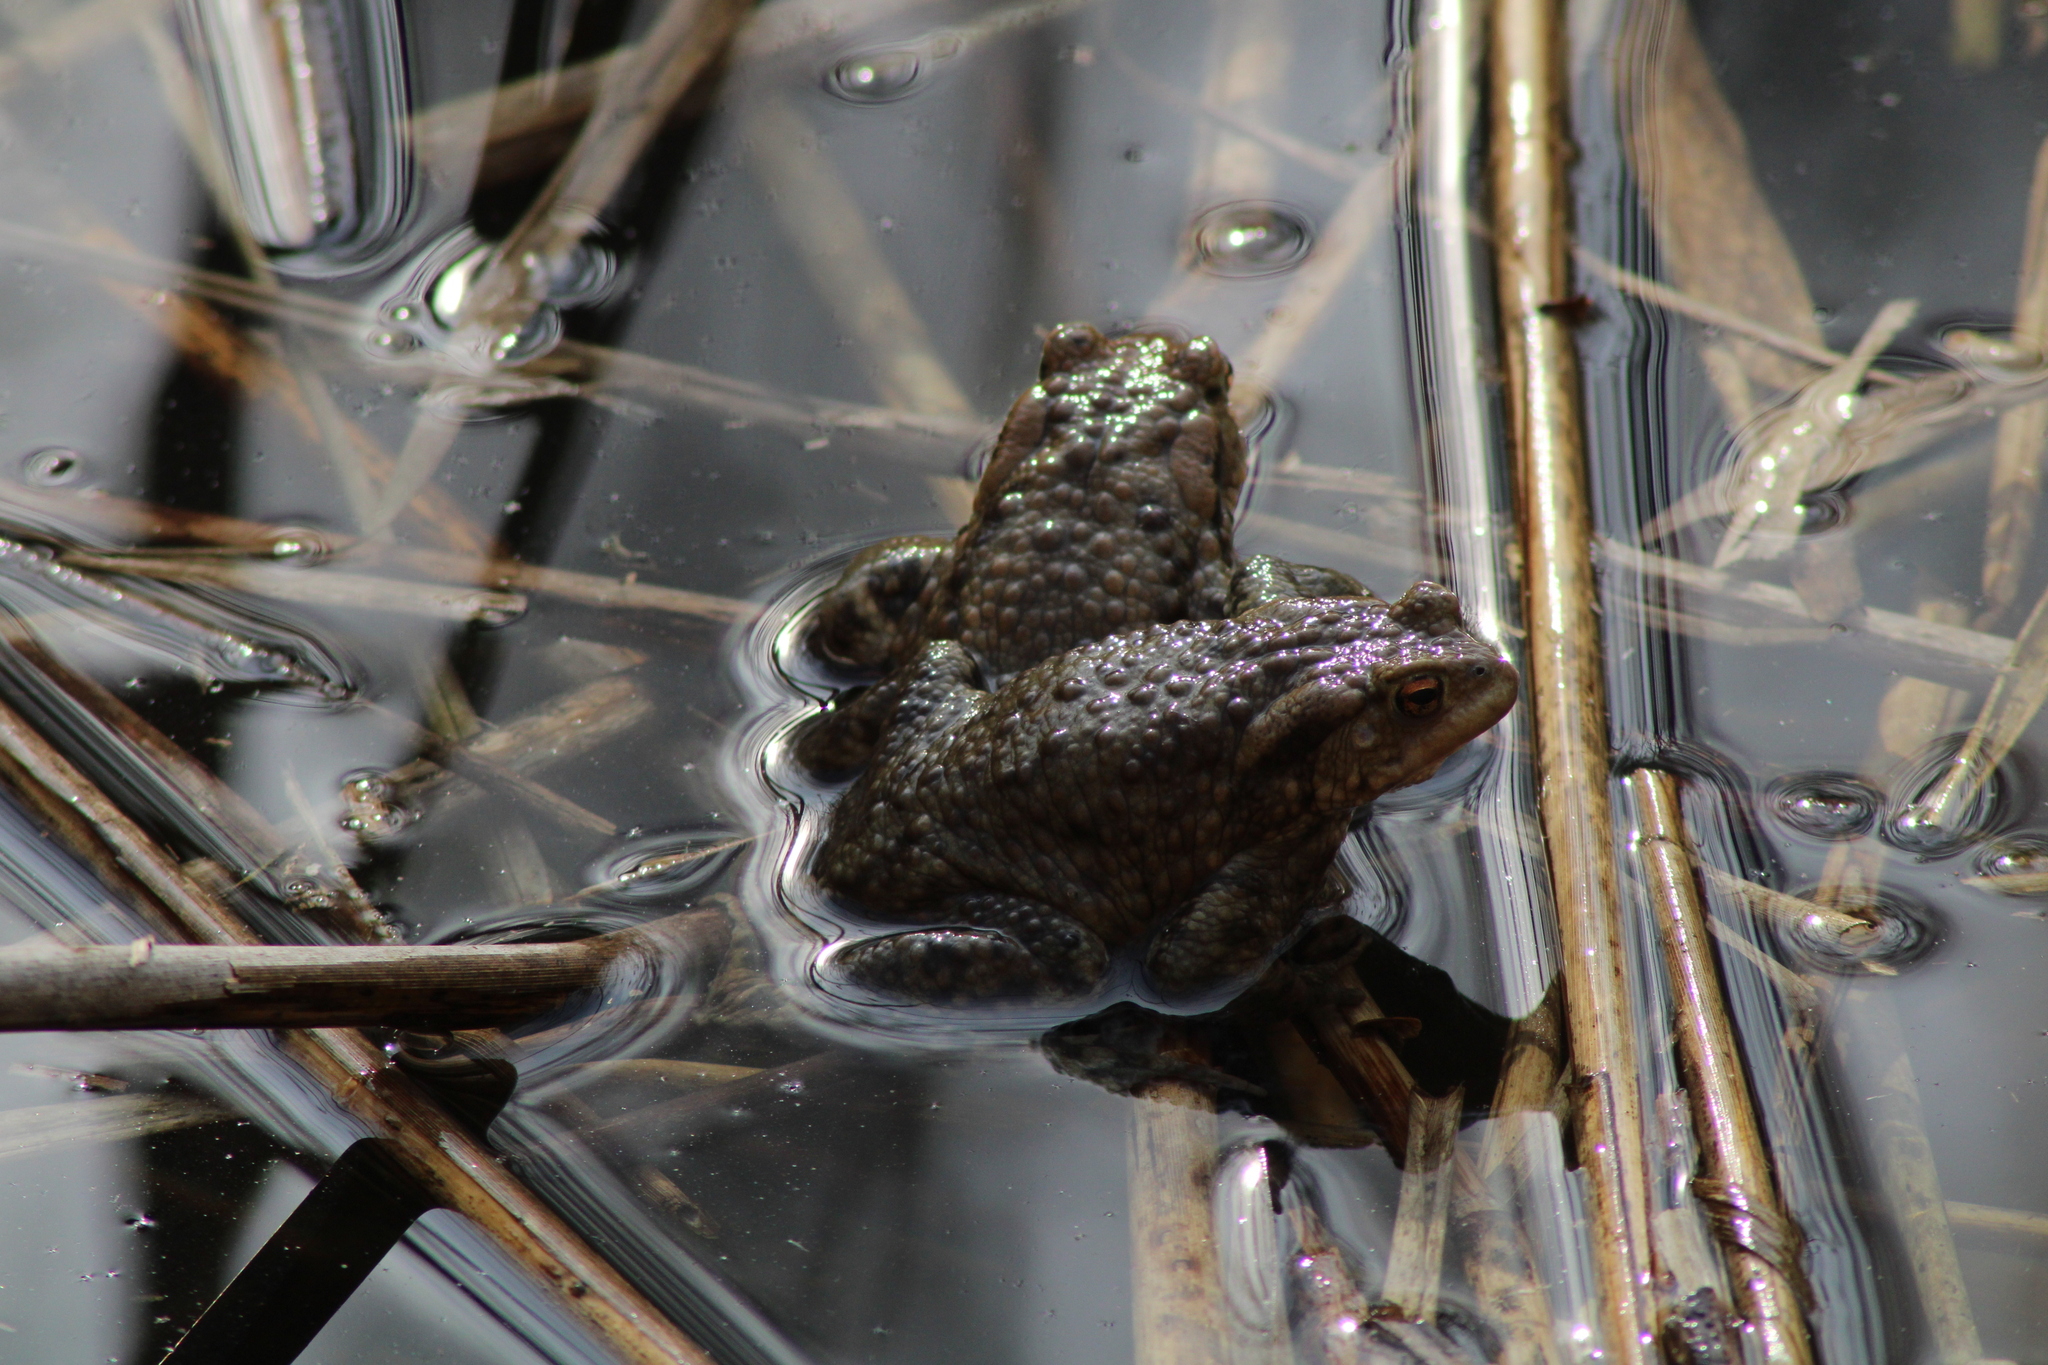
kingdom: Animalia
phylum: Chordata
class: Amphibia
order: Anura
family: Bufonidae
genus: Bufo
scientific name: Bufo bufo
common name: Common toad
